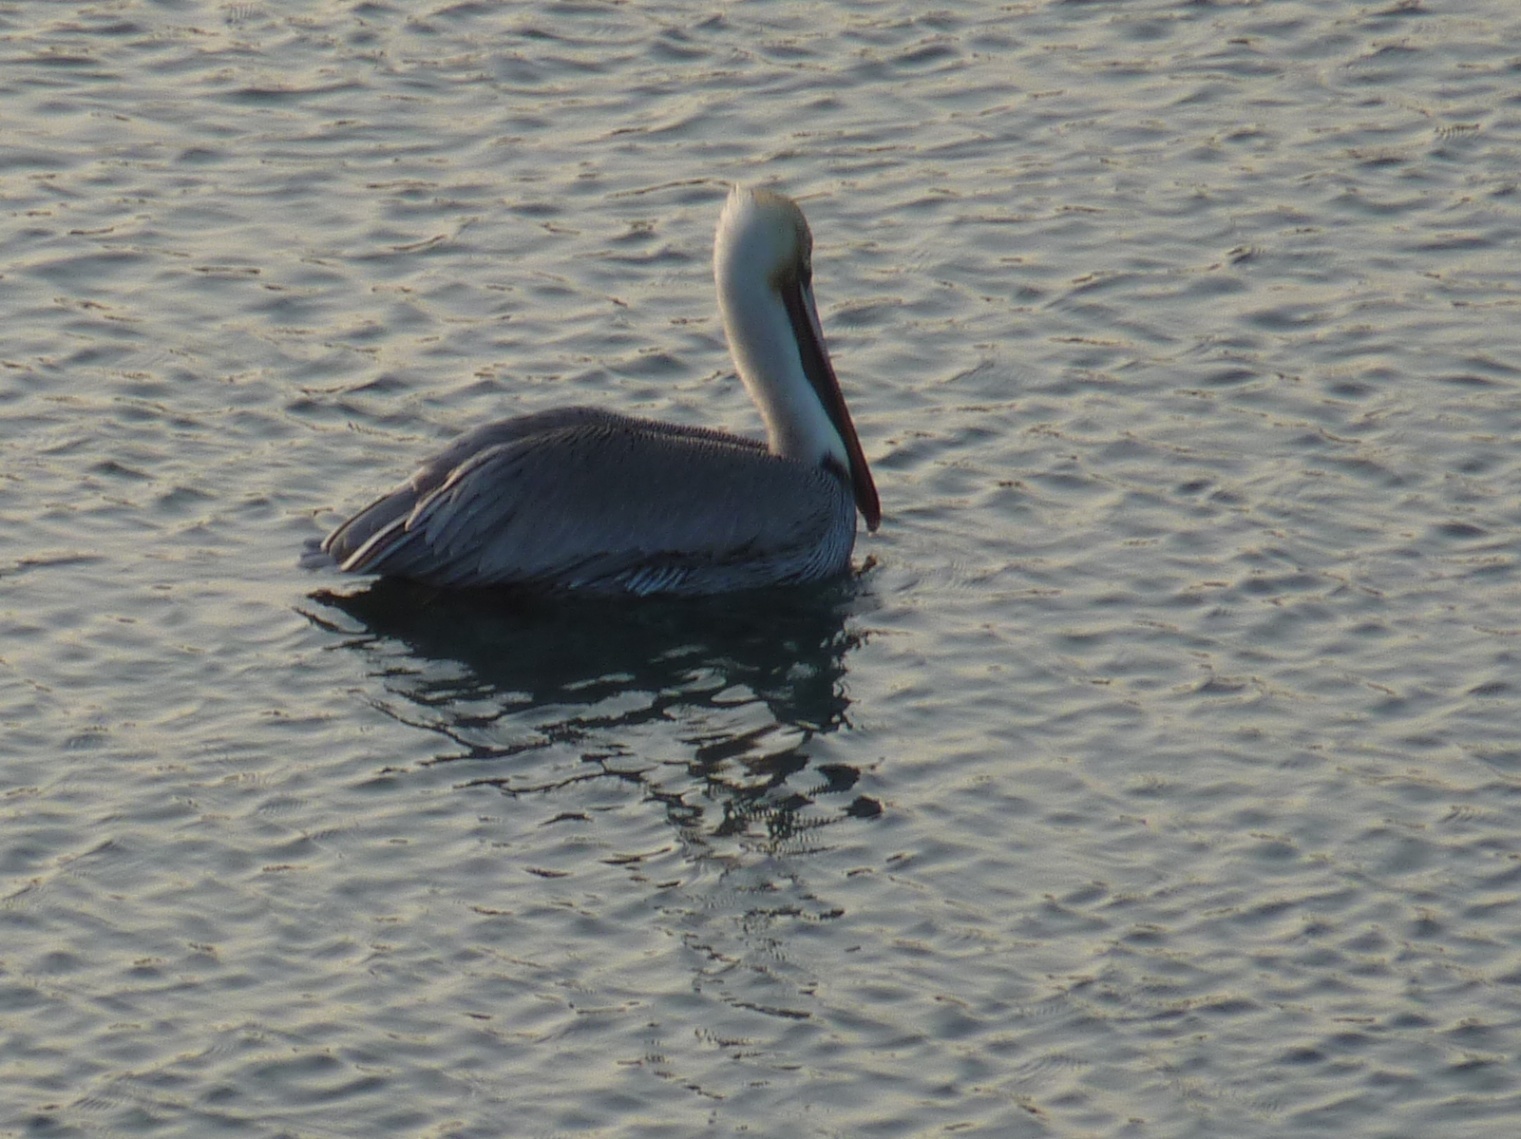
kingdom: Animalia
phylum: Chordata
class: Aves
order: Pelecaniformes
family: Pelecanidae
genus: Pelecanus
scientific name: Pelecanus occidentalis
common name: Brown pelican
